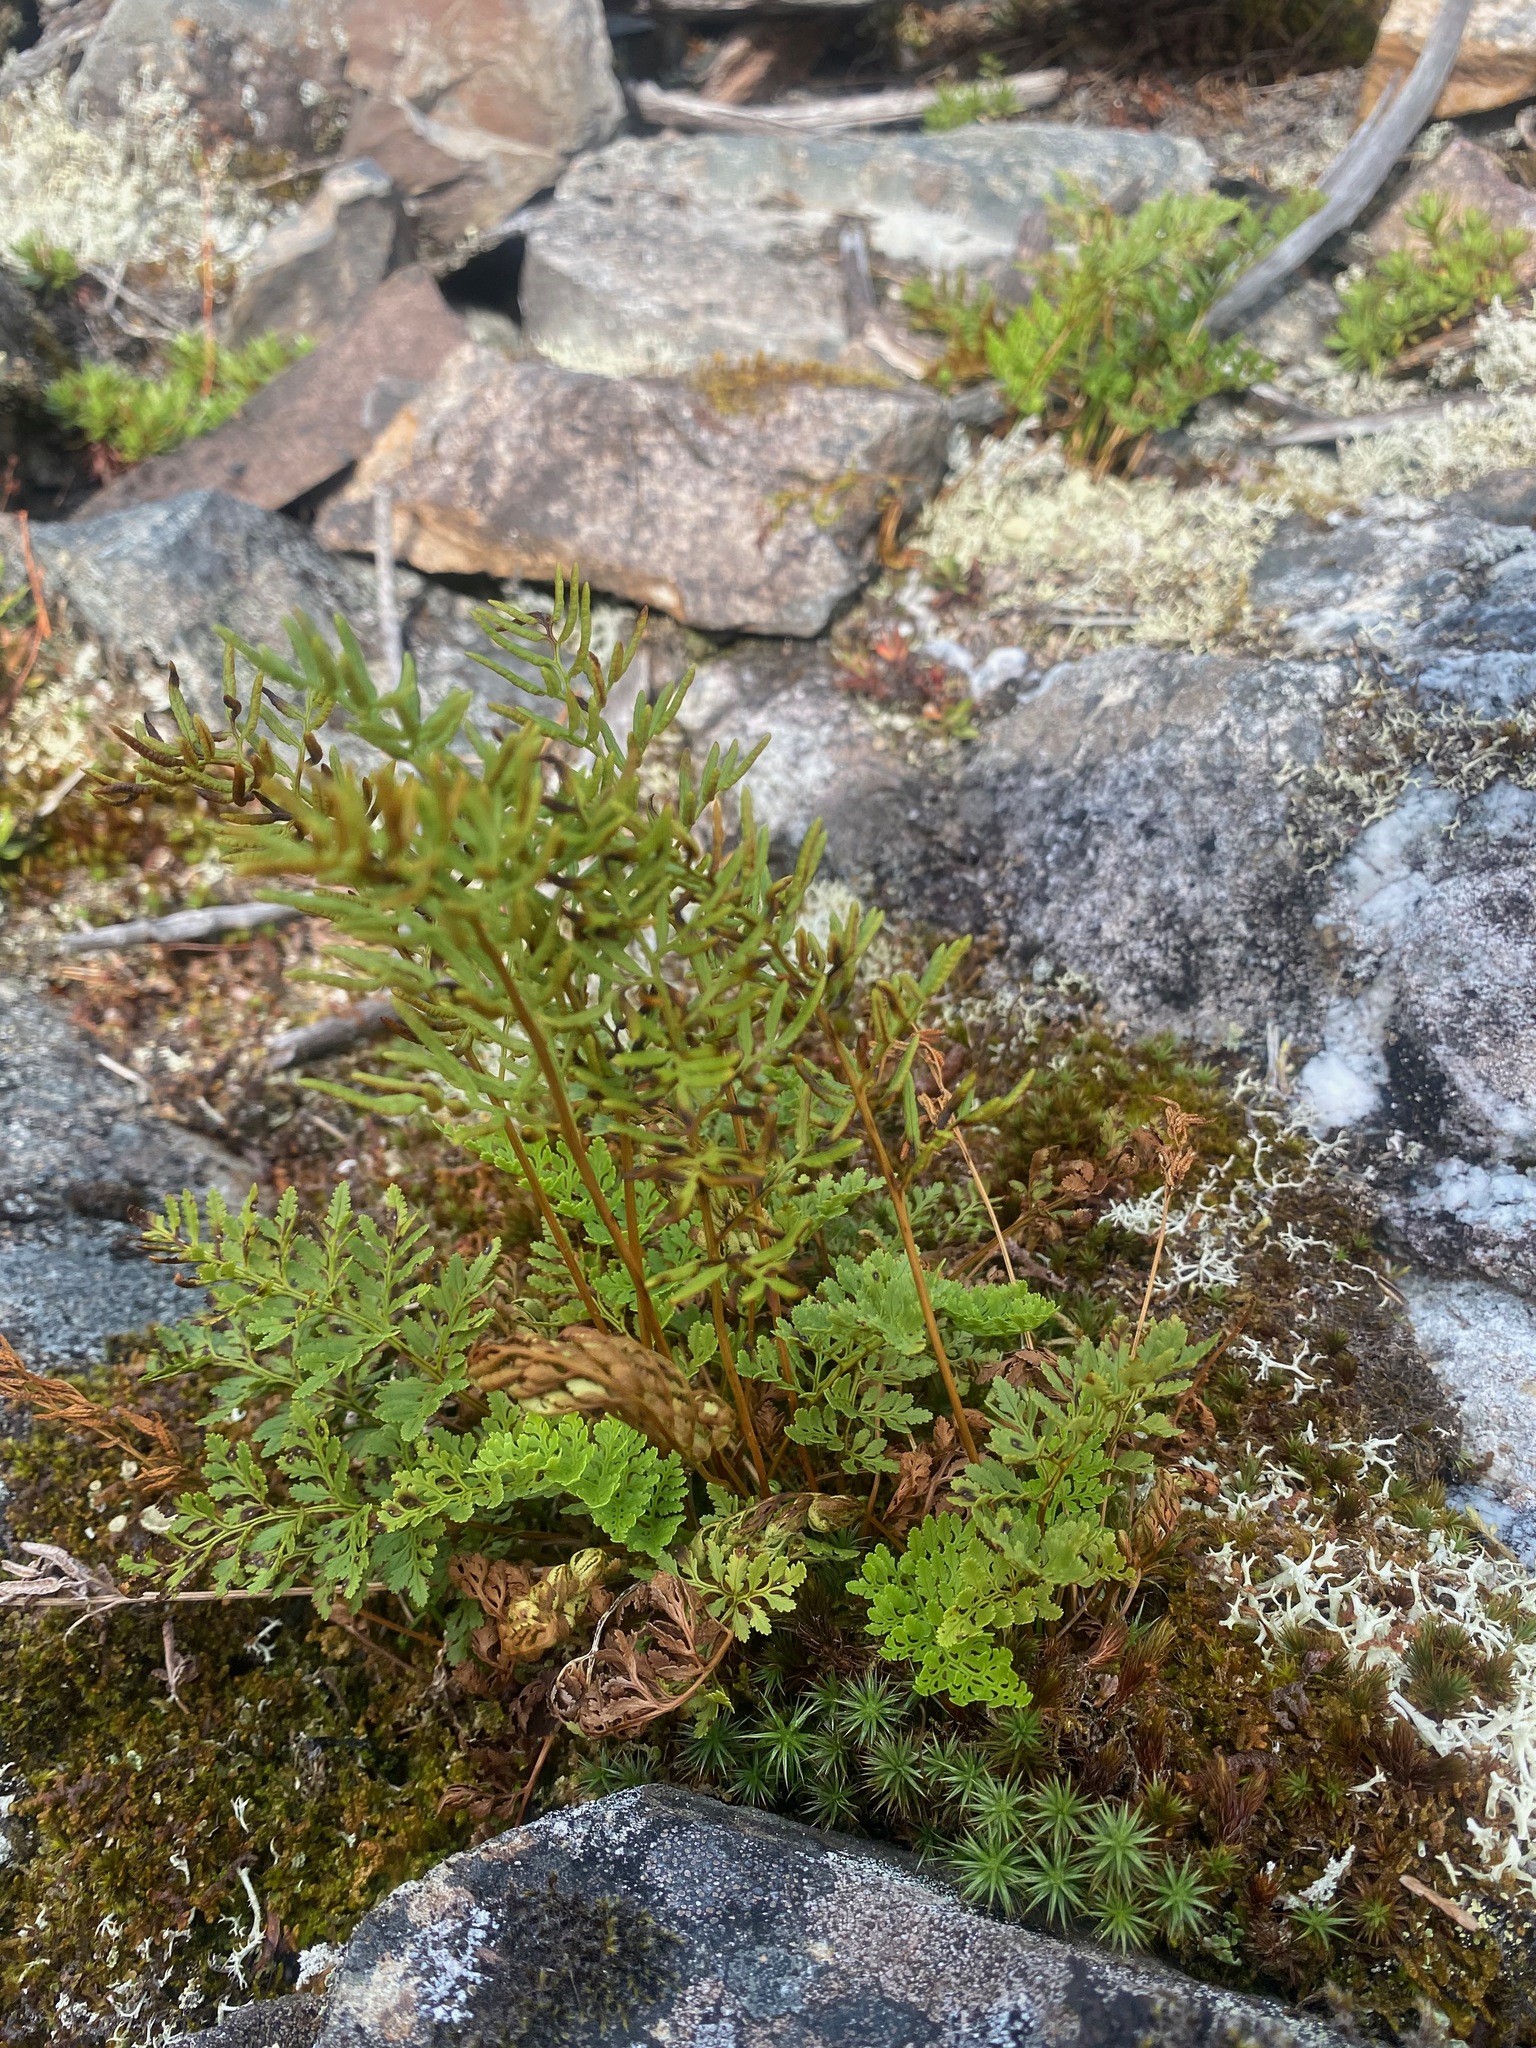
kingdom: Plantae
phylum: Tracheophyta
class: Polypodiopsida
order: Polypodiales
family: Pteridaceae
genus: Cryptogramma
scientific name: Cryptogramma acrostichoides
